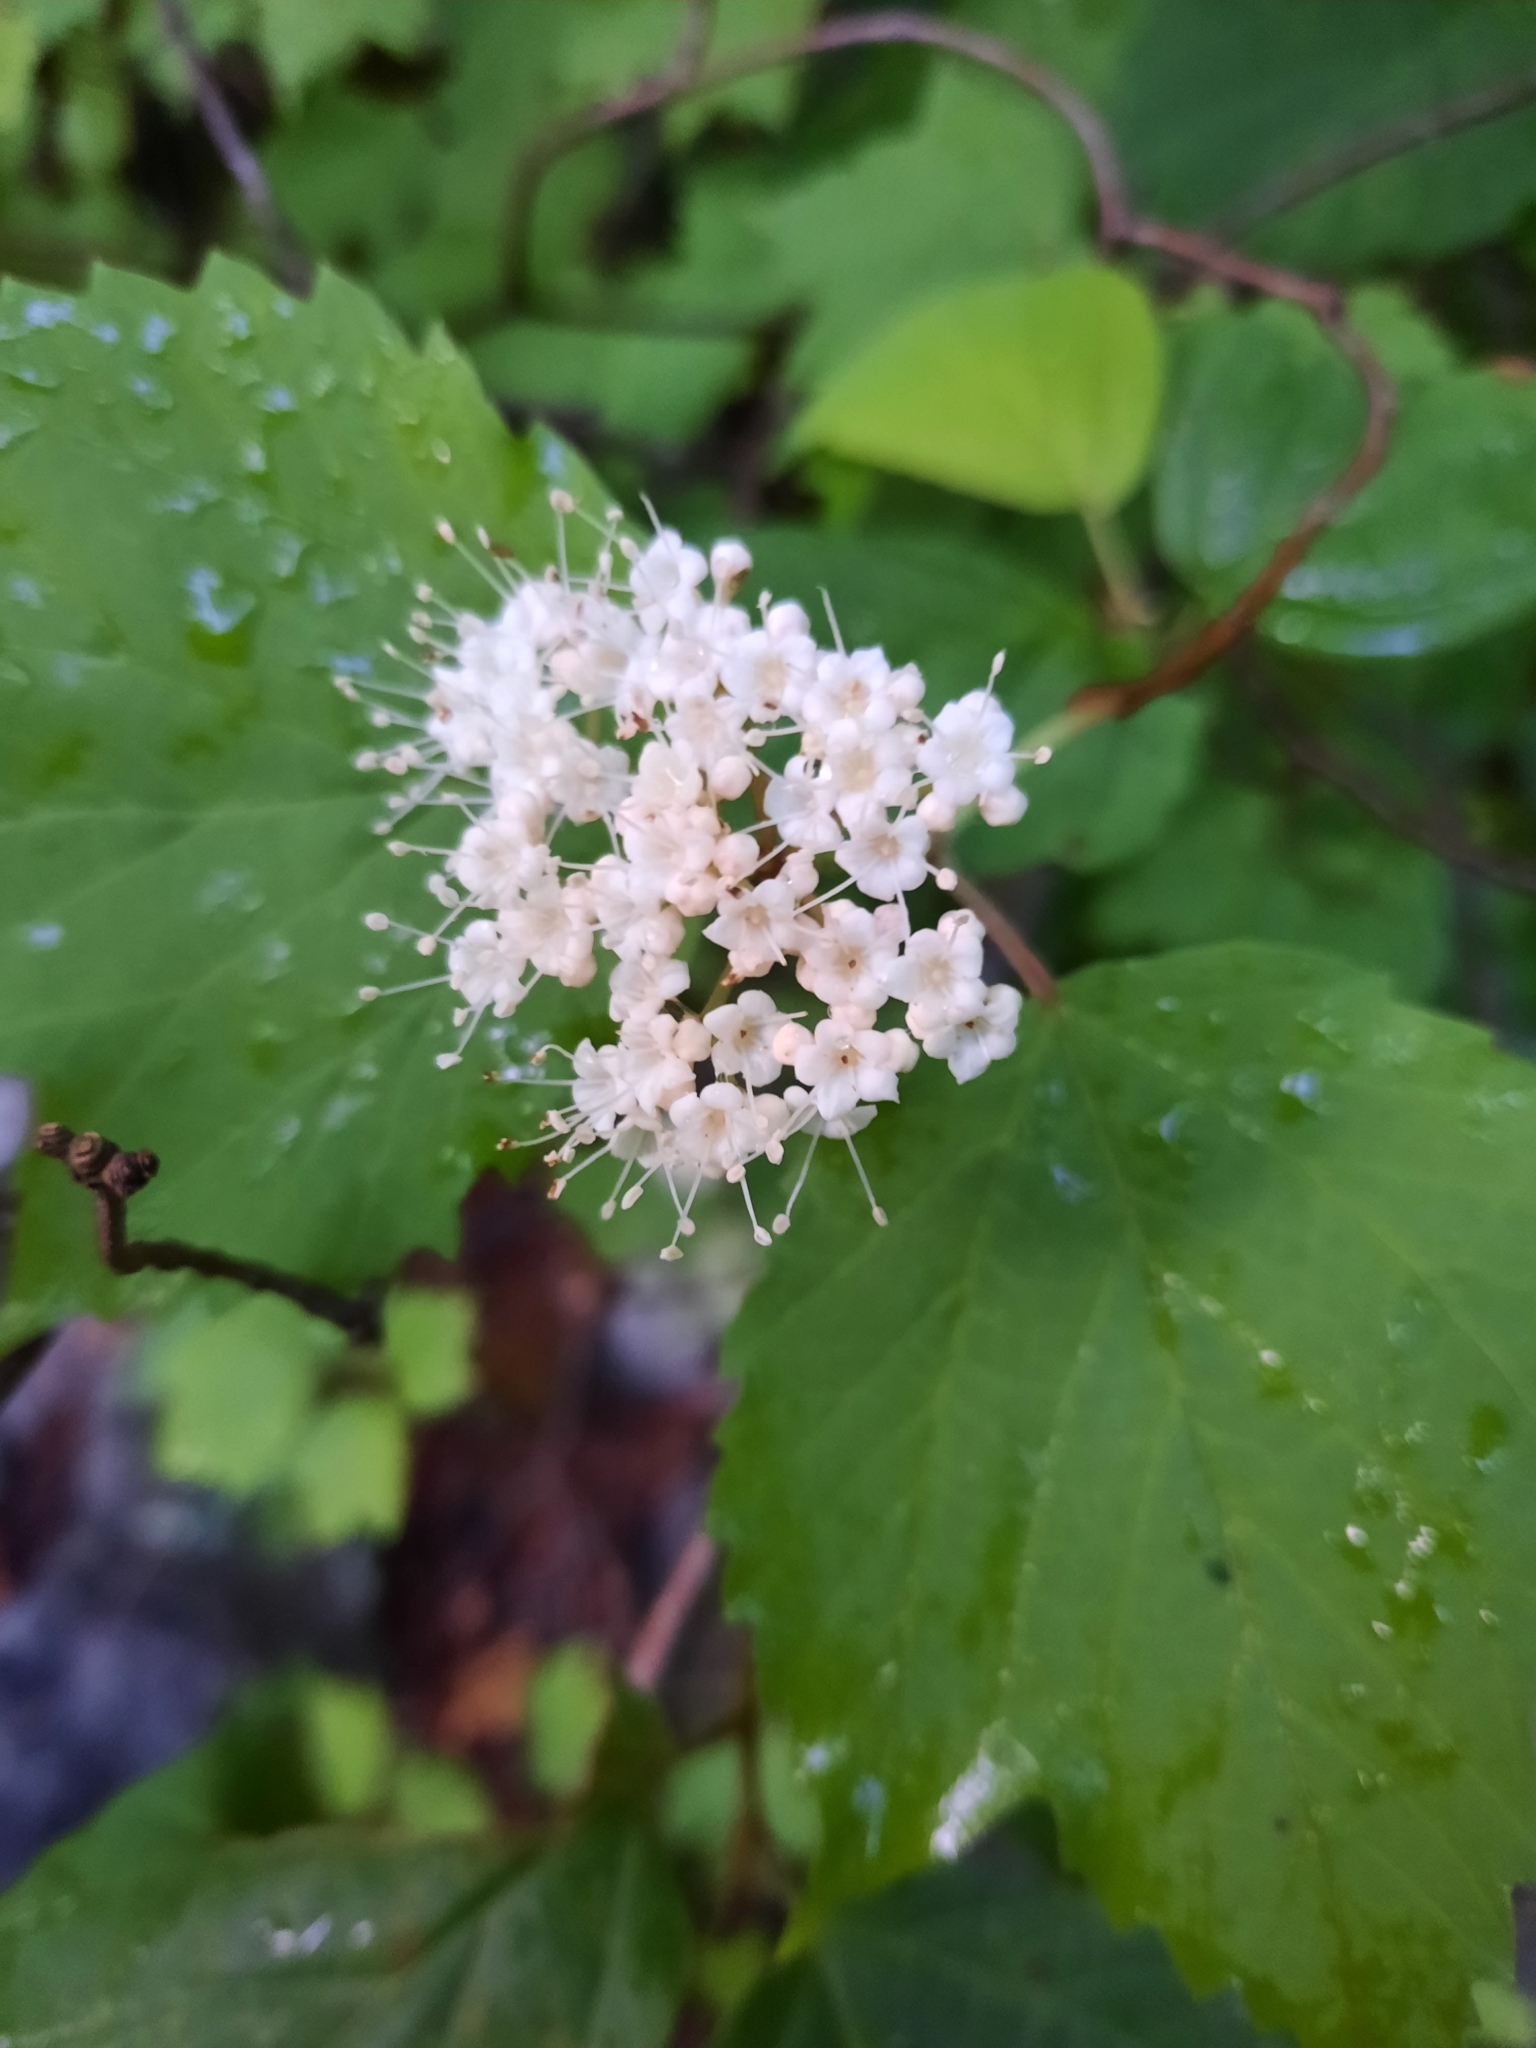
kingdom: Plantae
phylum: Tracheophyta
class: Magnoliopsida
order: Dipsacales
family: Viburnaceae
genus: Viburnum
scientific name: Viburnum acerifolium
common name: Dockmackie
